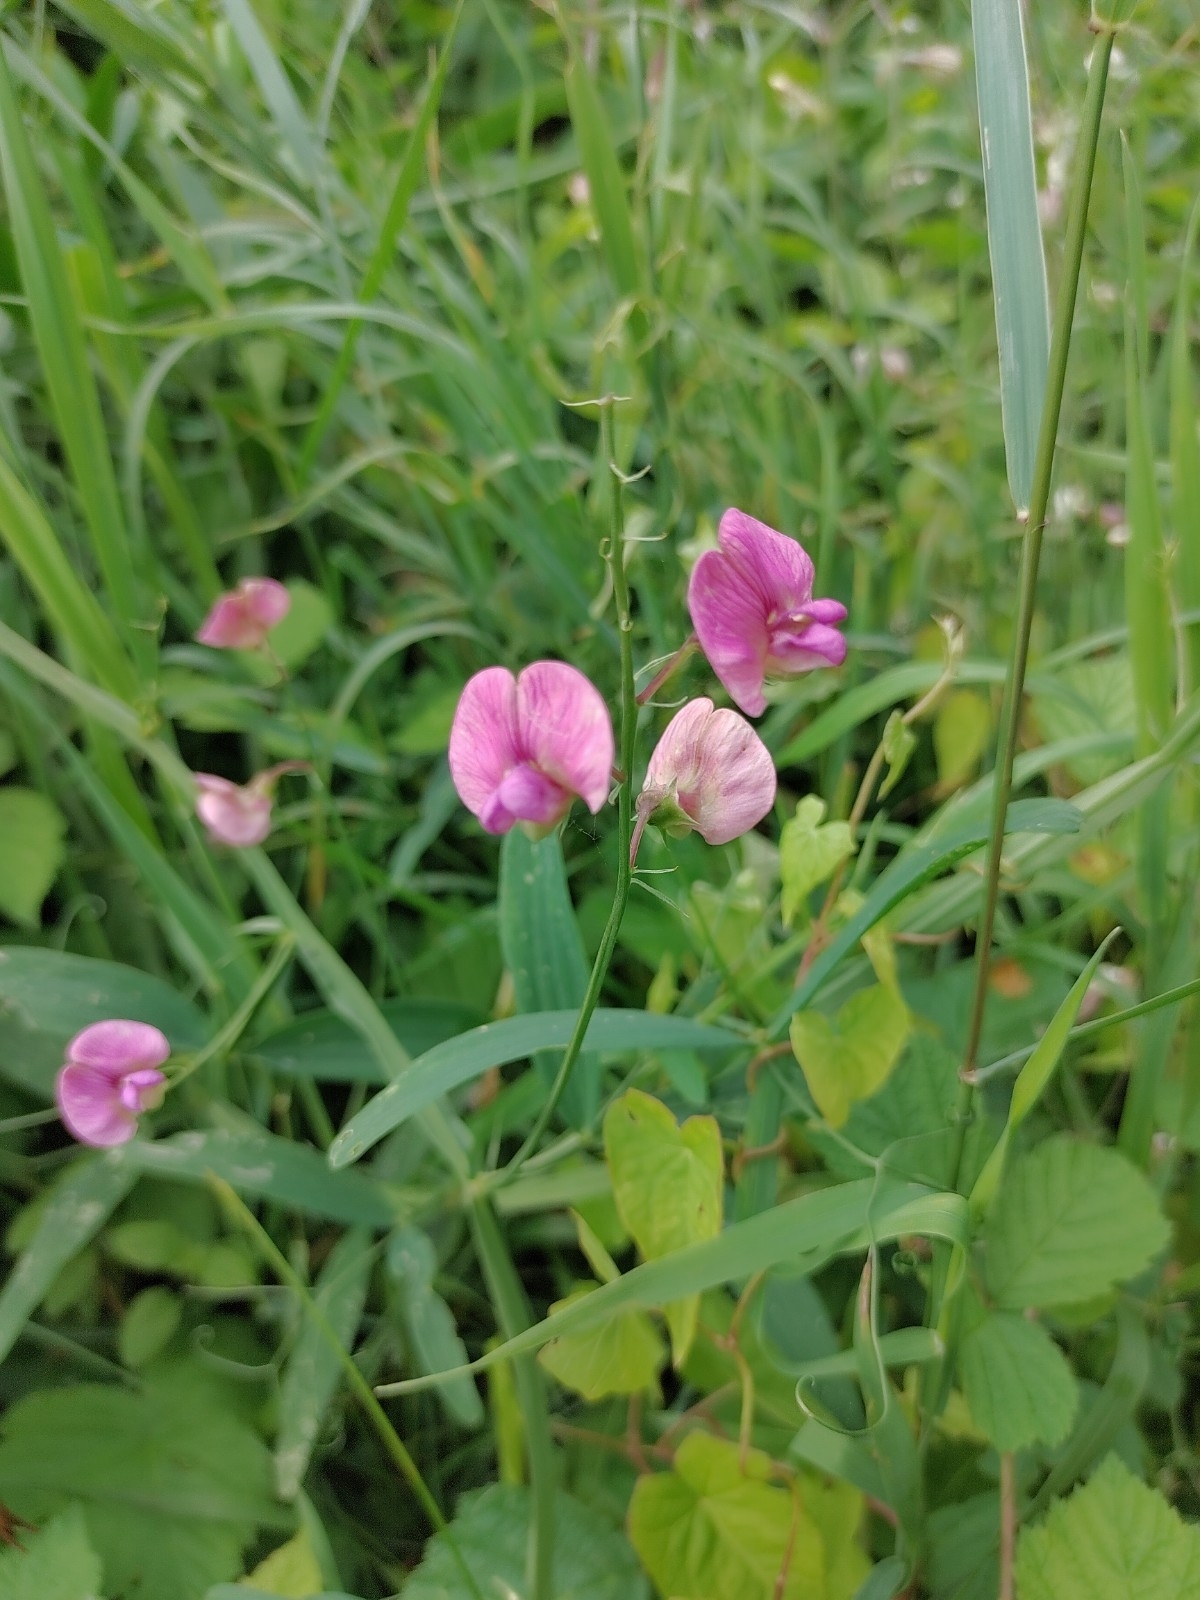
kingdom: Plantae
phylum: Tracheophyta
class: Magnoliopsida
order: Fabales
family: Fabaceae
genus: Lathyrus
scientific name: Lathyrus sylvestris
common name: Flat pea
